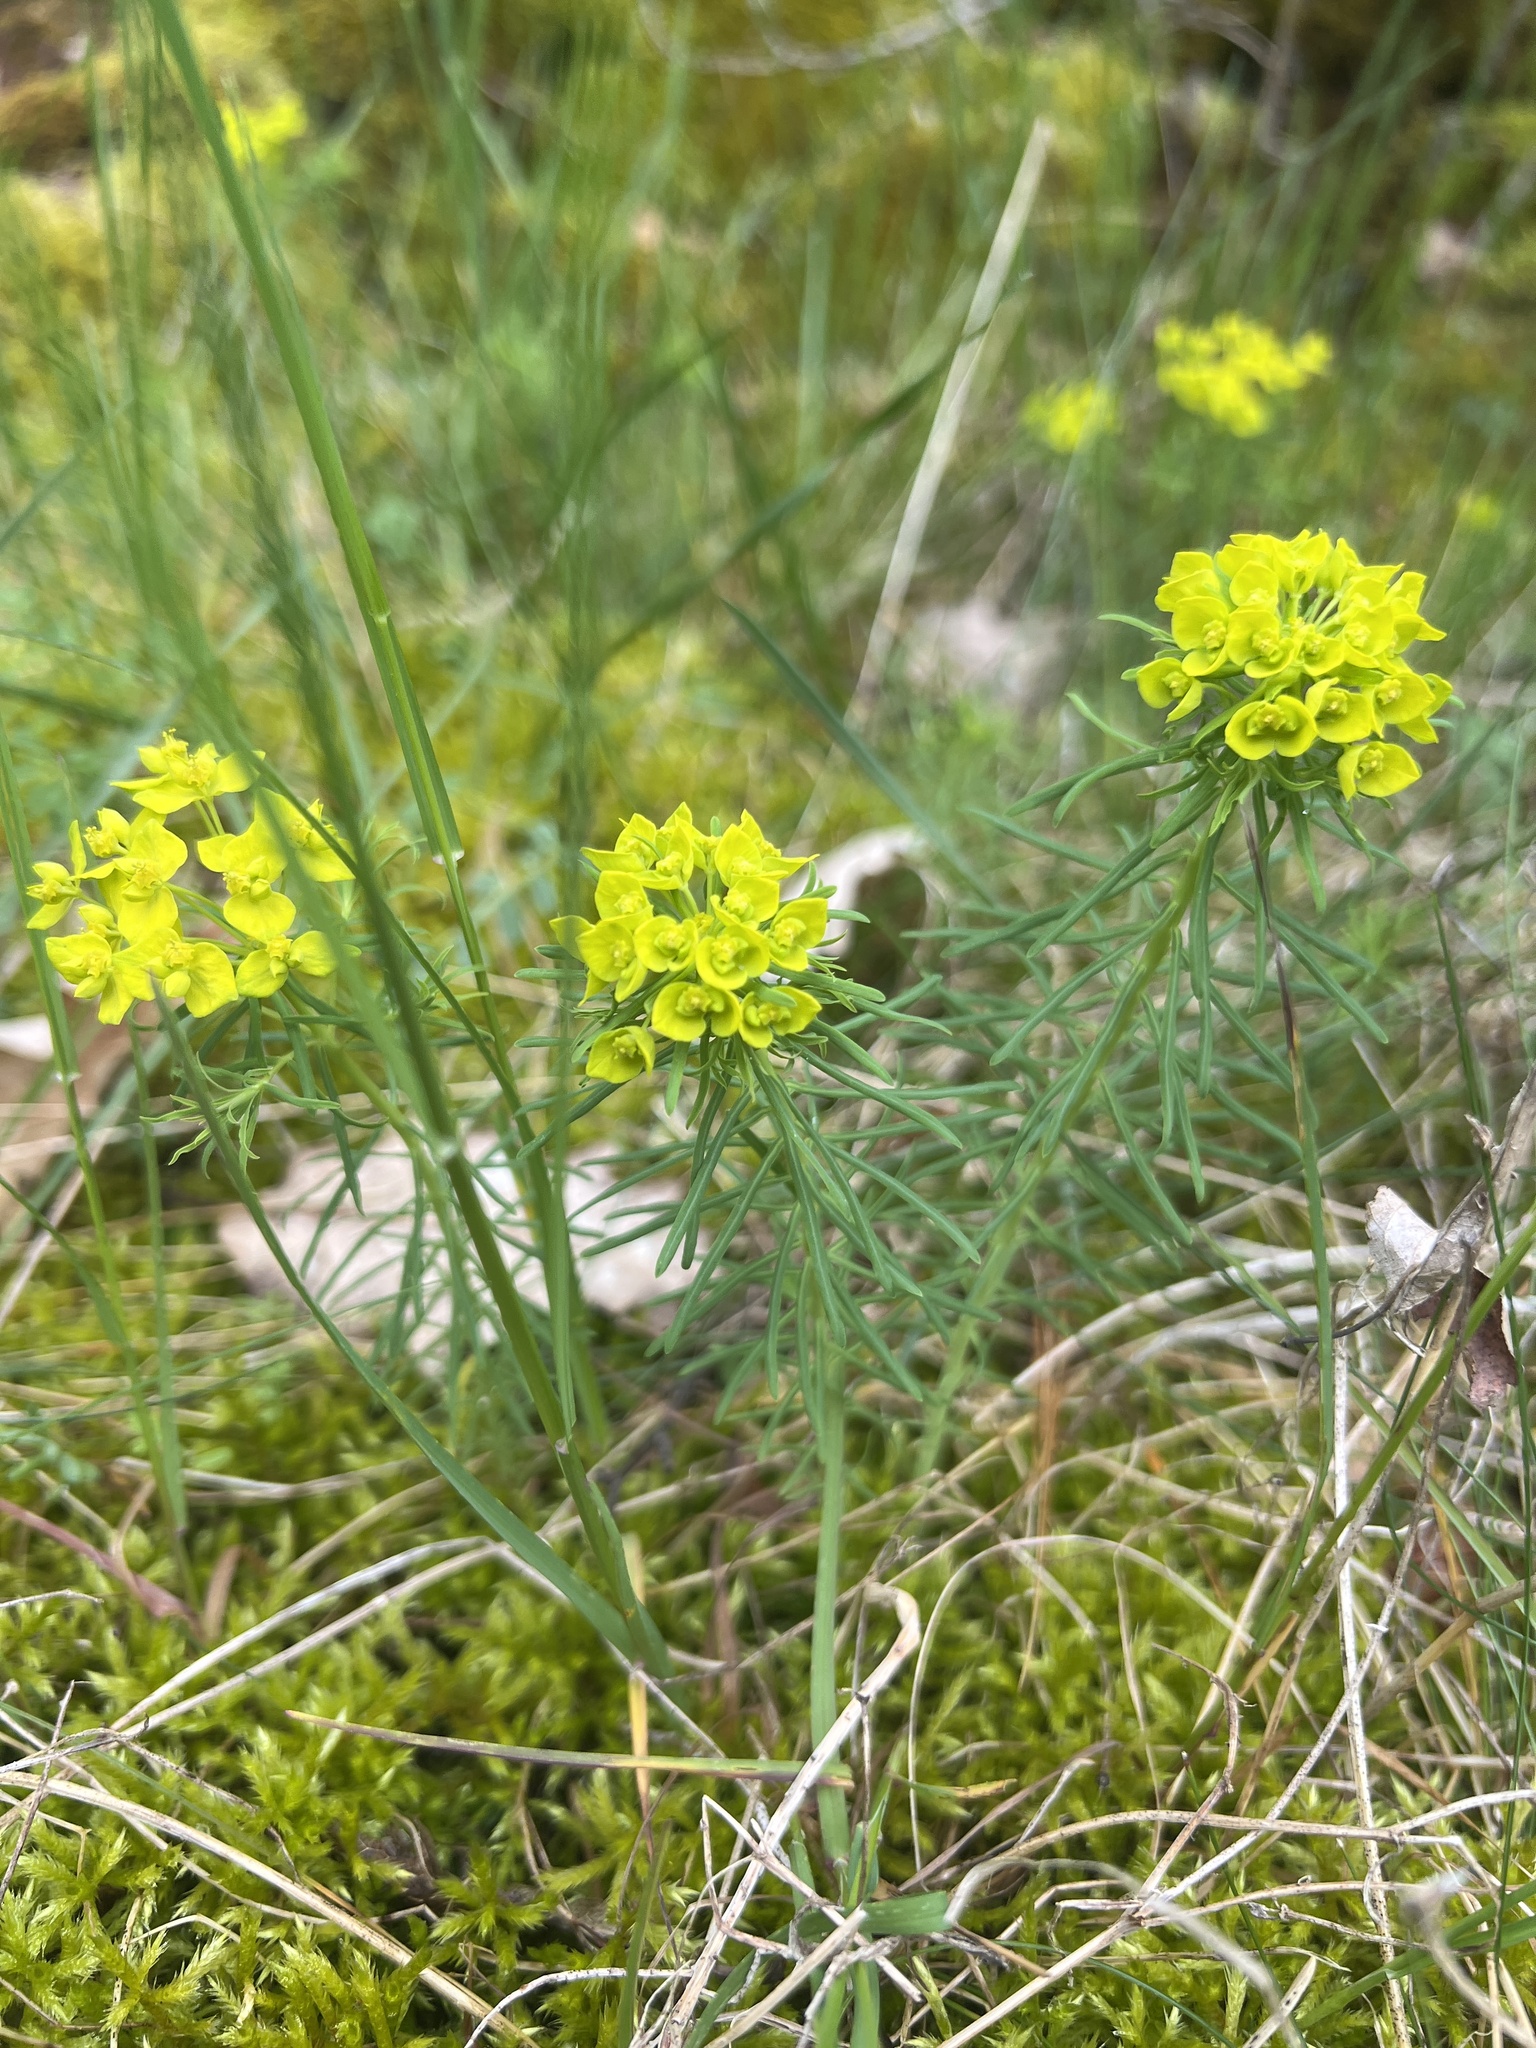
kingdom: Plantae
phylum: Tracheophyta
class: Magnoliopsida
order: Malpighiales
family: Euphorbiaceae
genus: Euphorbia
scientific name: Euphorbia cyparissias
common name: Cypress spurge
